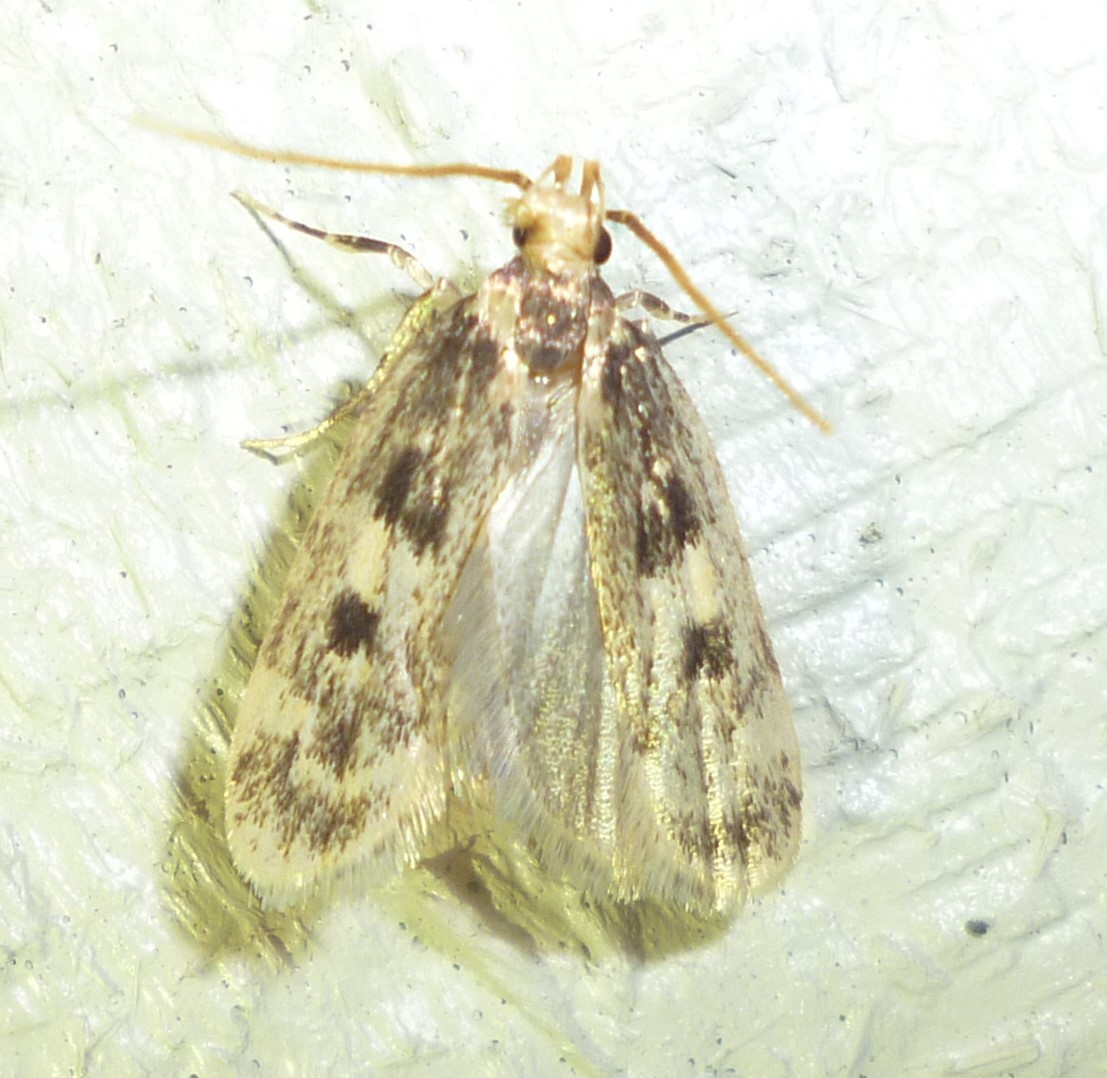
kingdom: Animalia
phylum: Arthropoda
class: Insecta
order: Lepidoptera
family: Lecithoceridae
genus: Martyringa
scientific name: Martyringa latipennis
